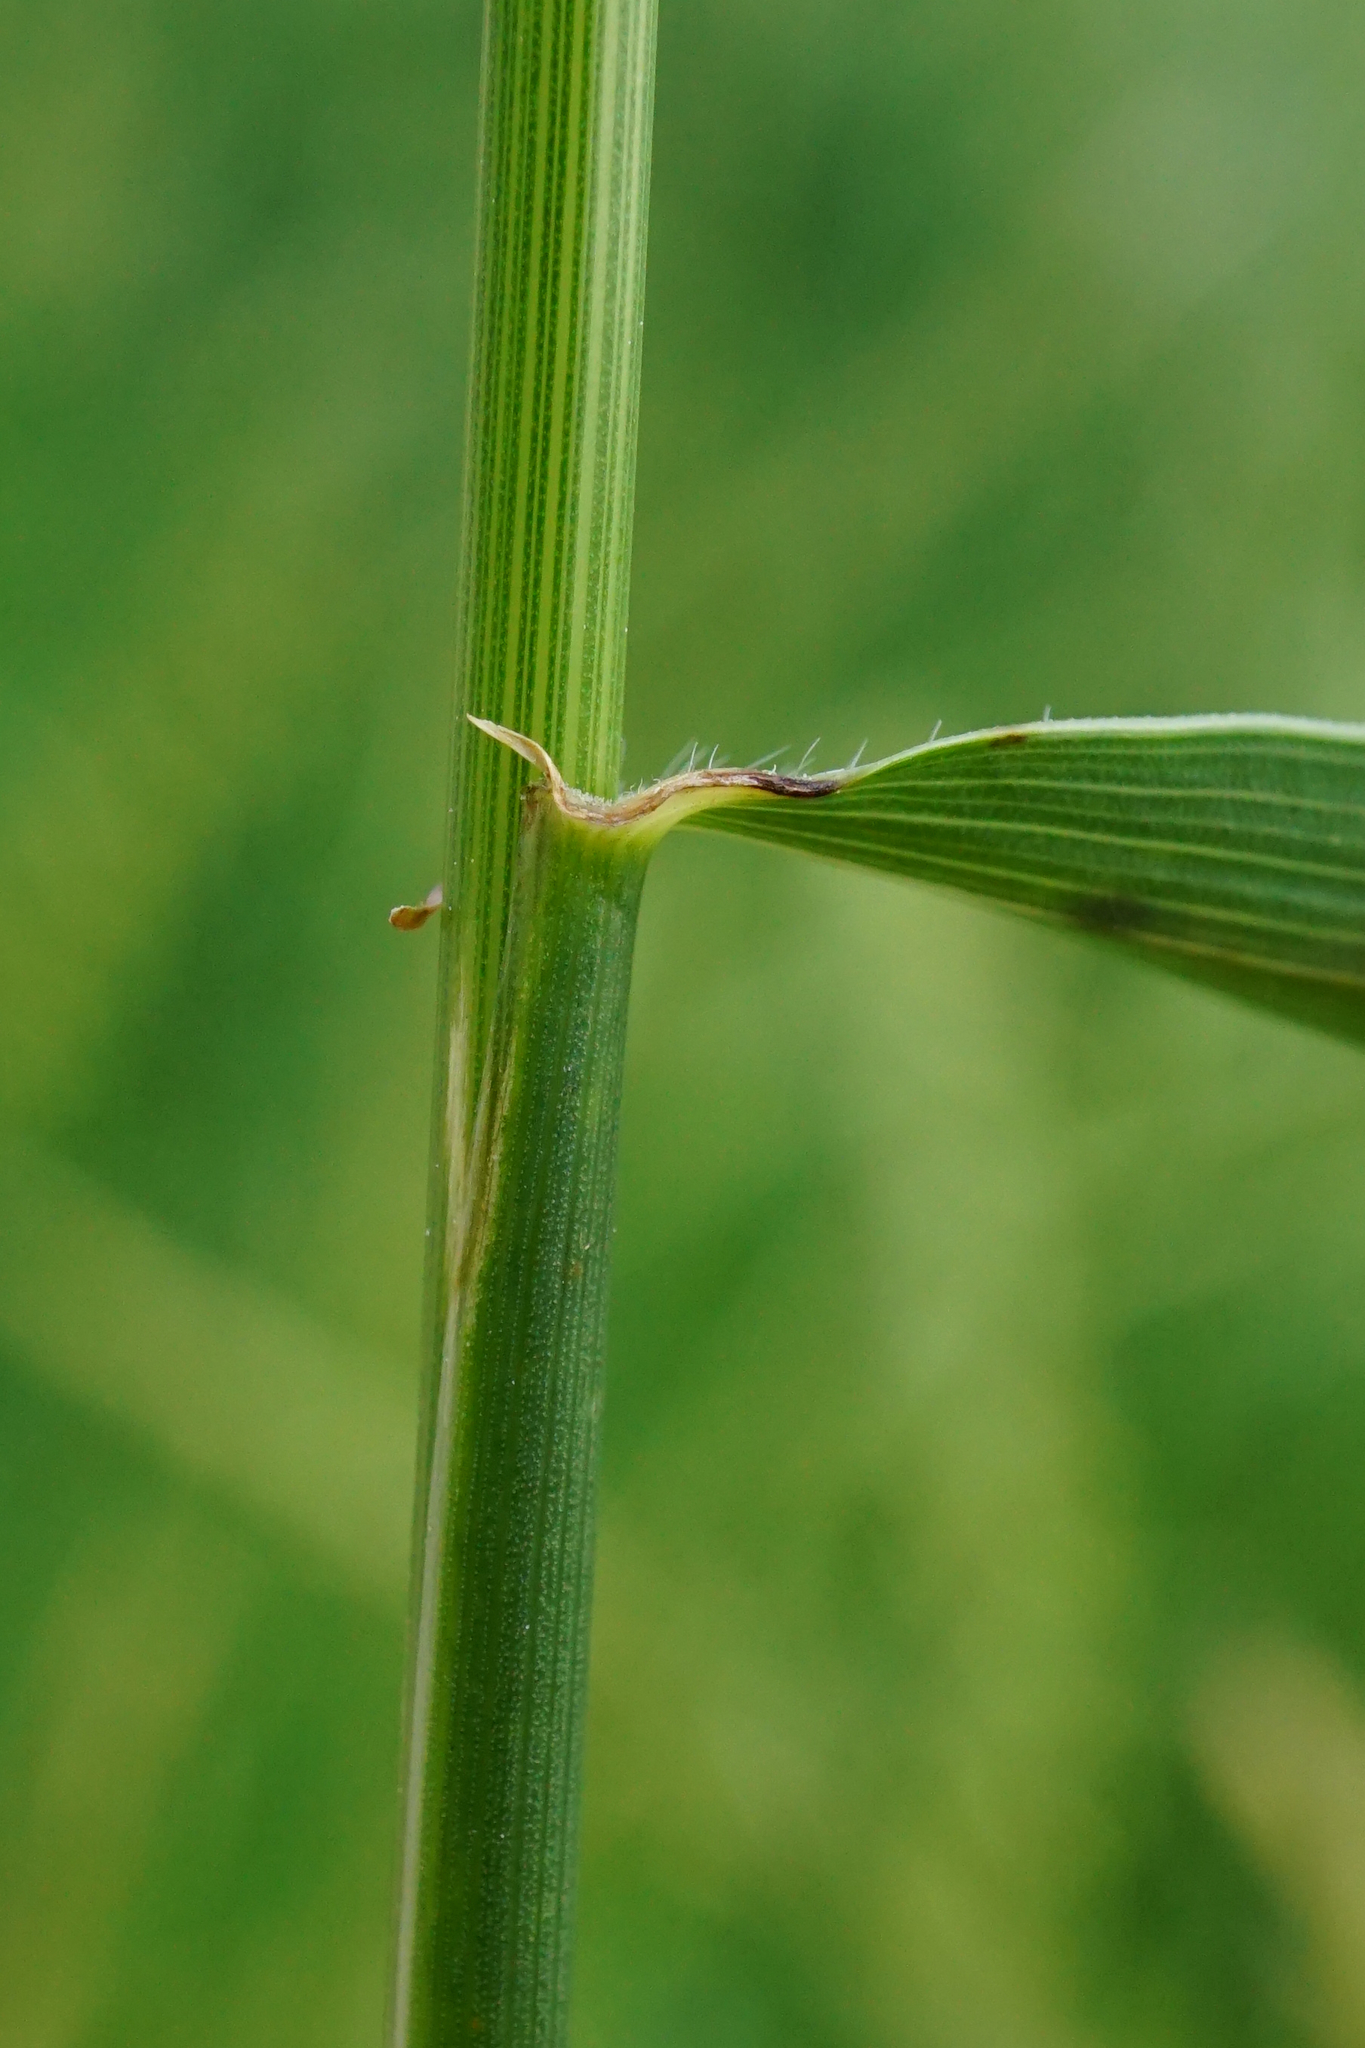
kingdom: Plantae
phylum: Tracheophyta
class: Liliopsida
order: Poales
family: Poaceae
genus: Elymus
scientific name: Elymus repens
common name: Quackgrass
